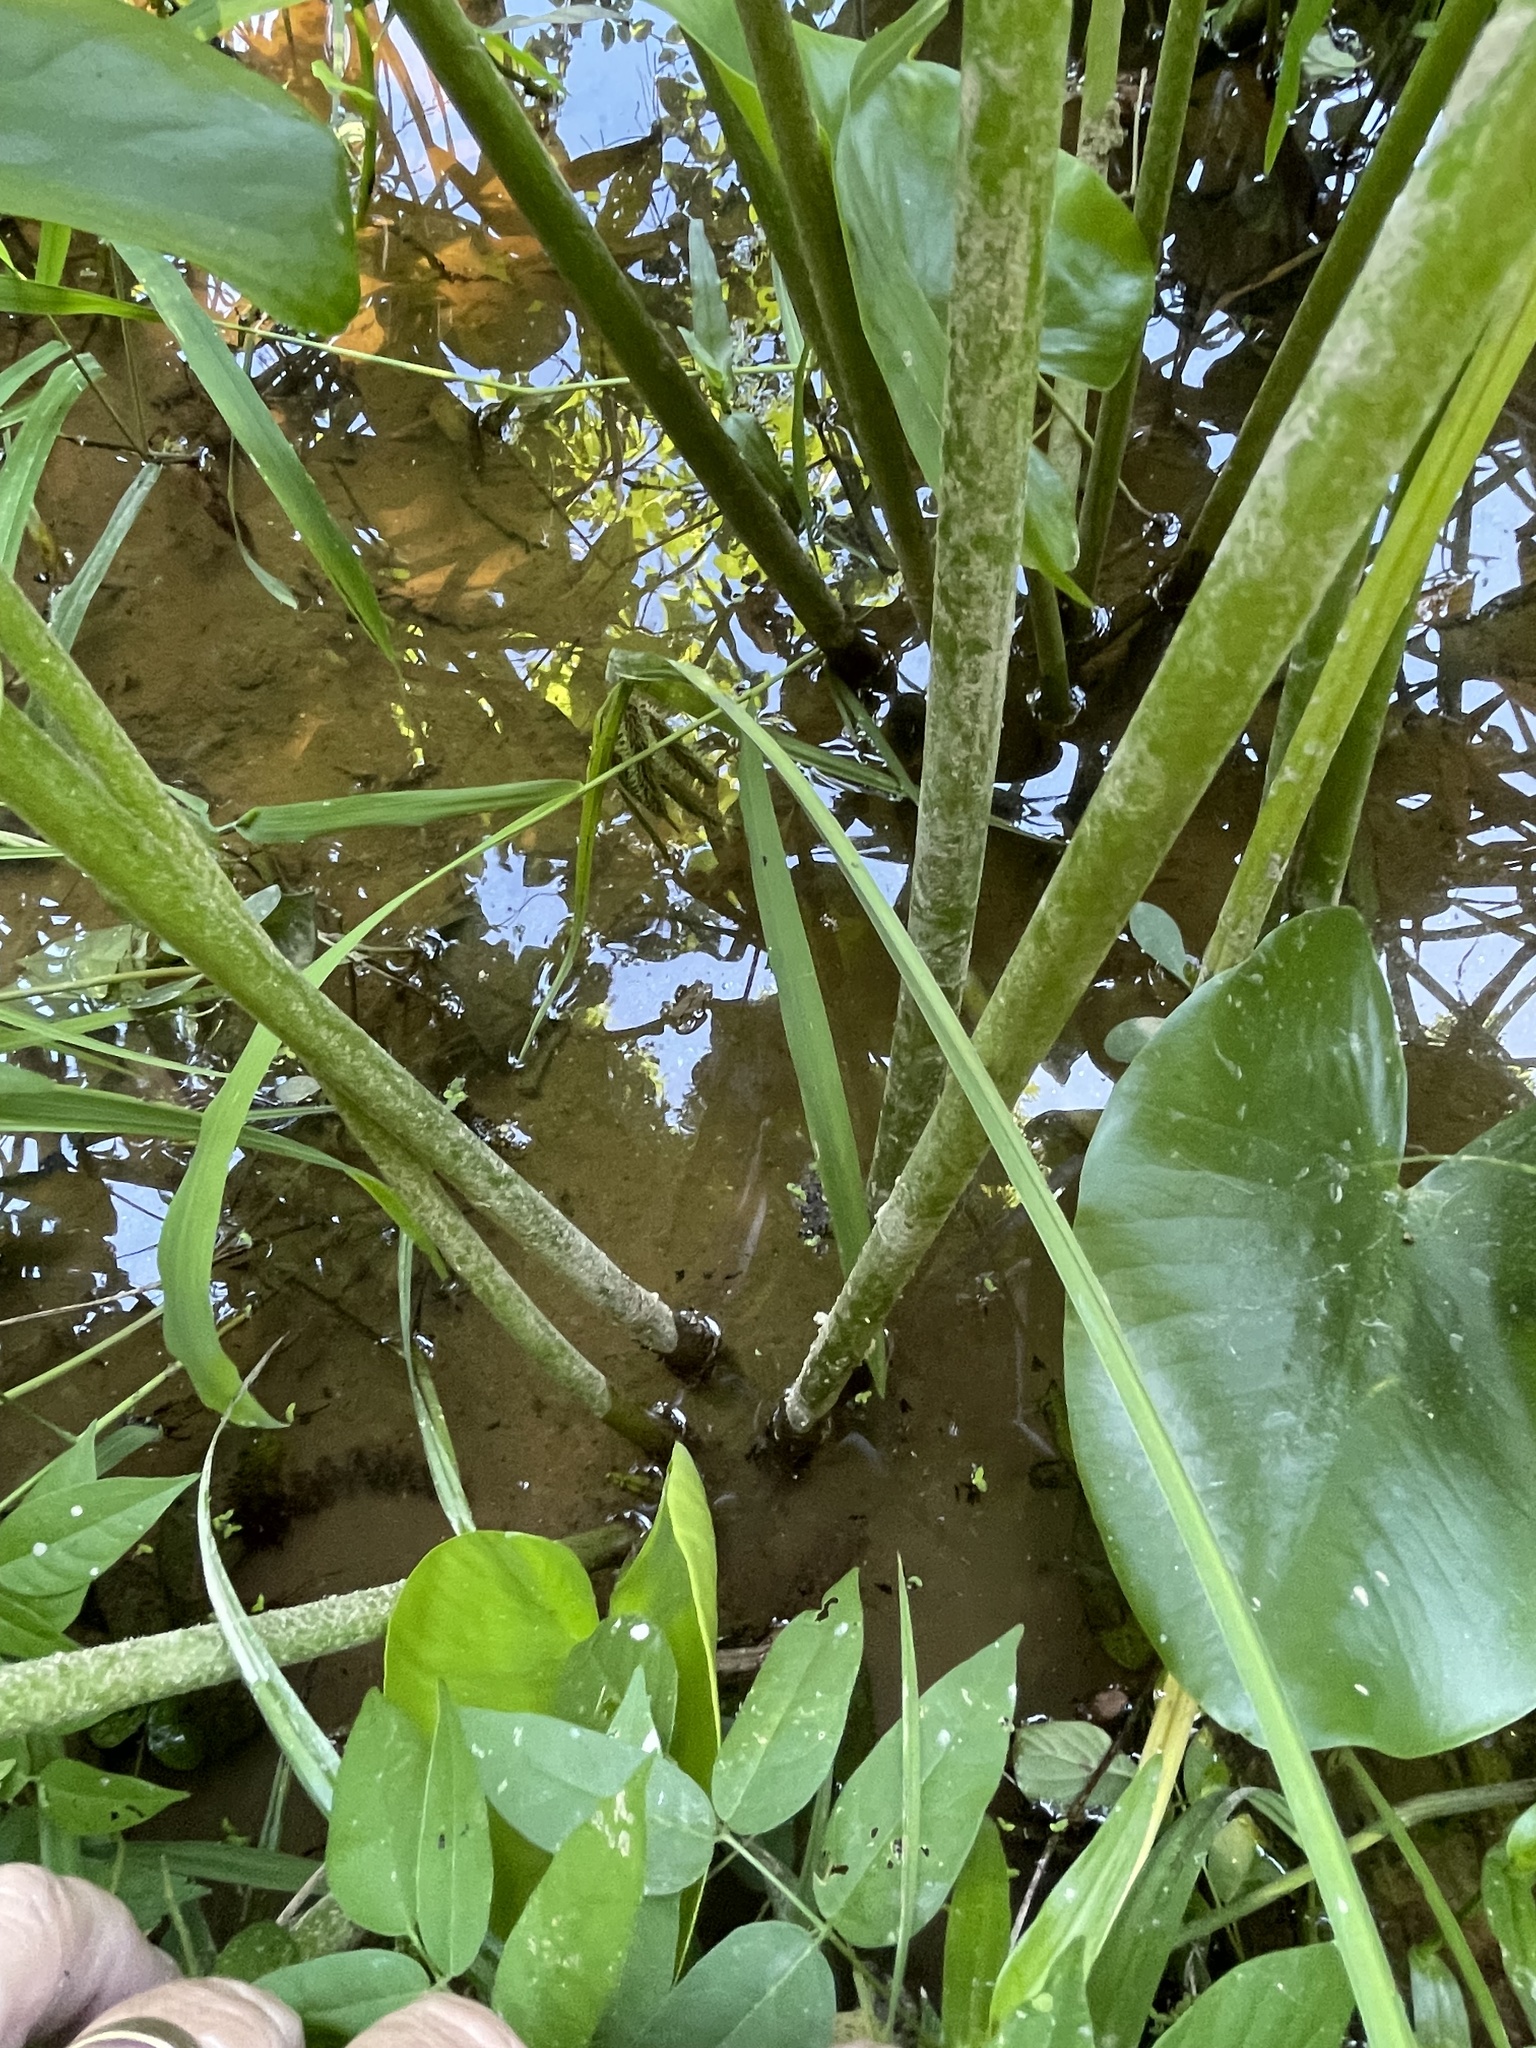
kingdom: Plantae
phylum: Tracheophyta
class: Magnoliopsida
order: Nymphaeales
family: Nymphaeaceae
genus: Nuphar
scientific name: Nuphar advena
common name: Spatter-dock
